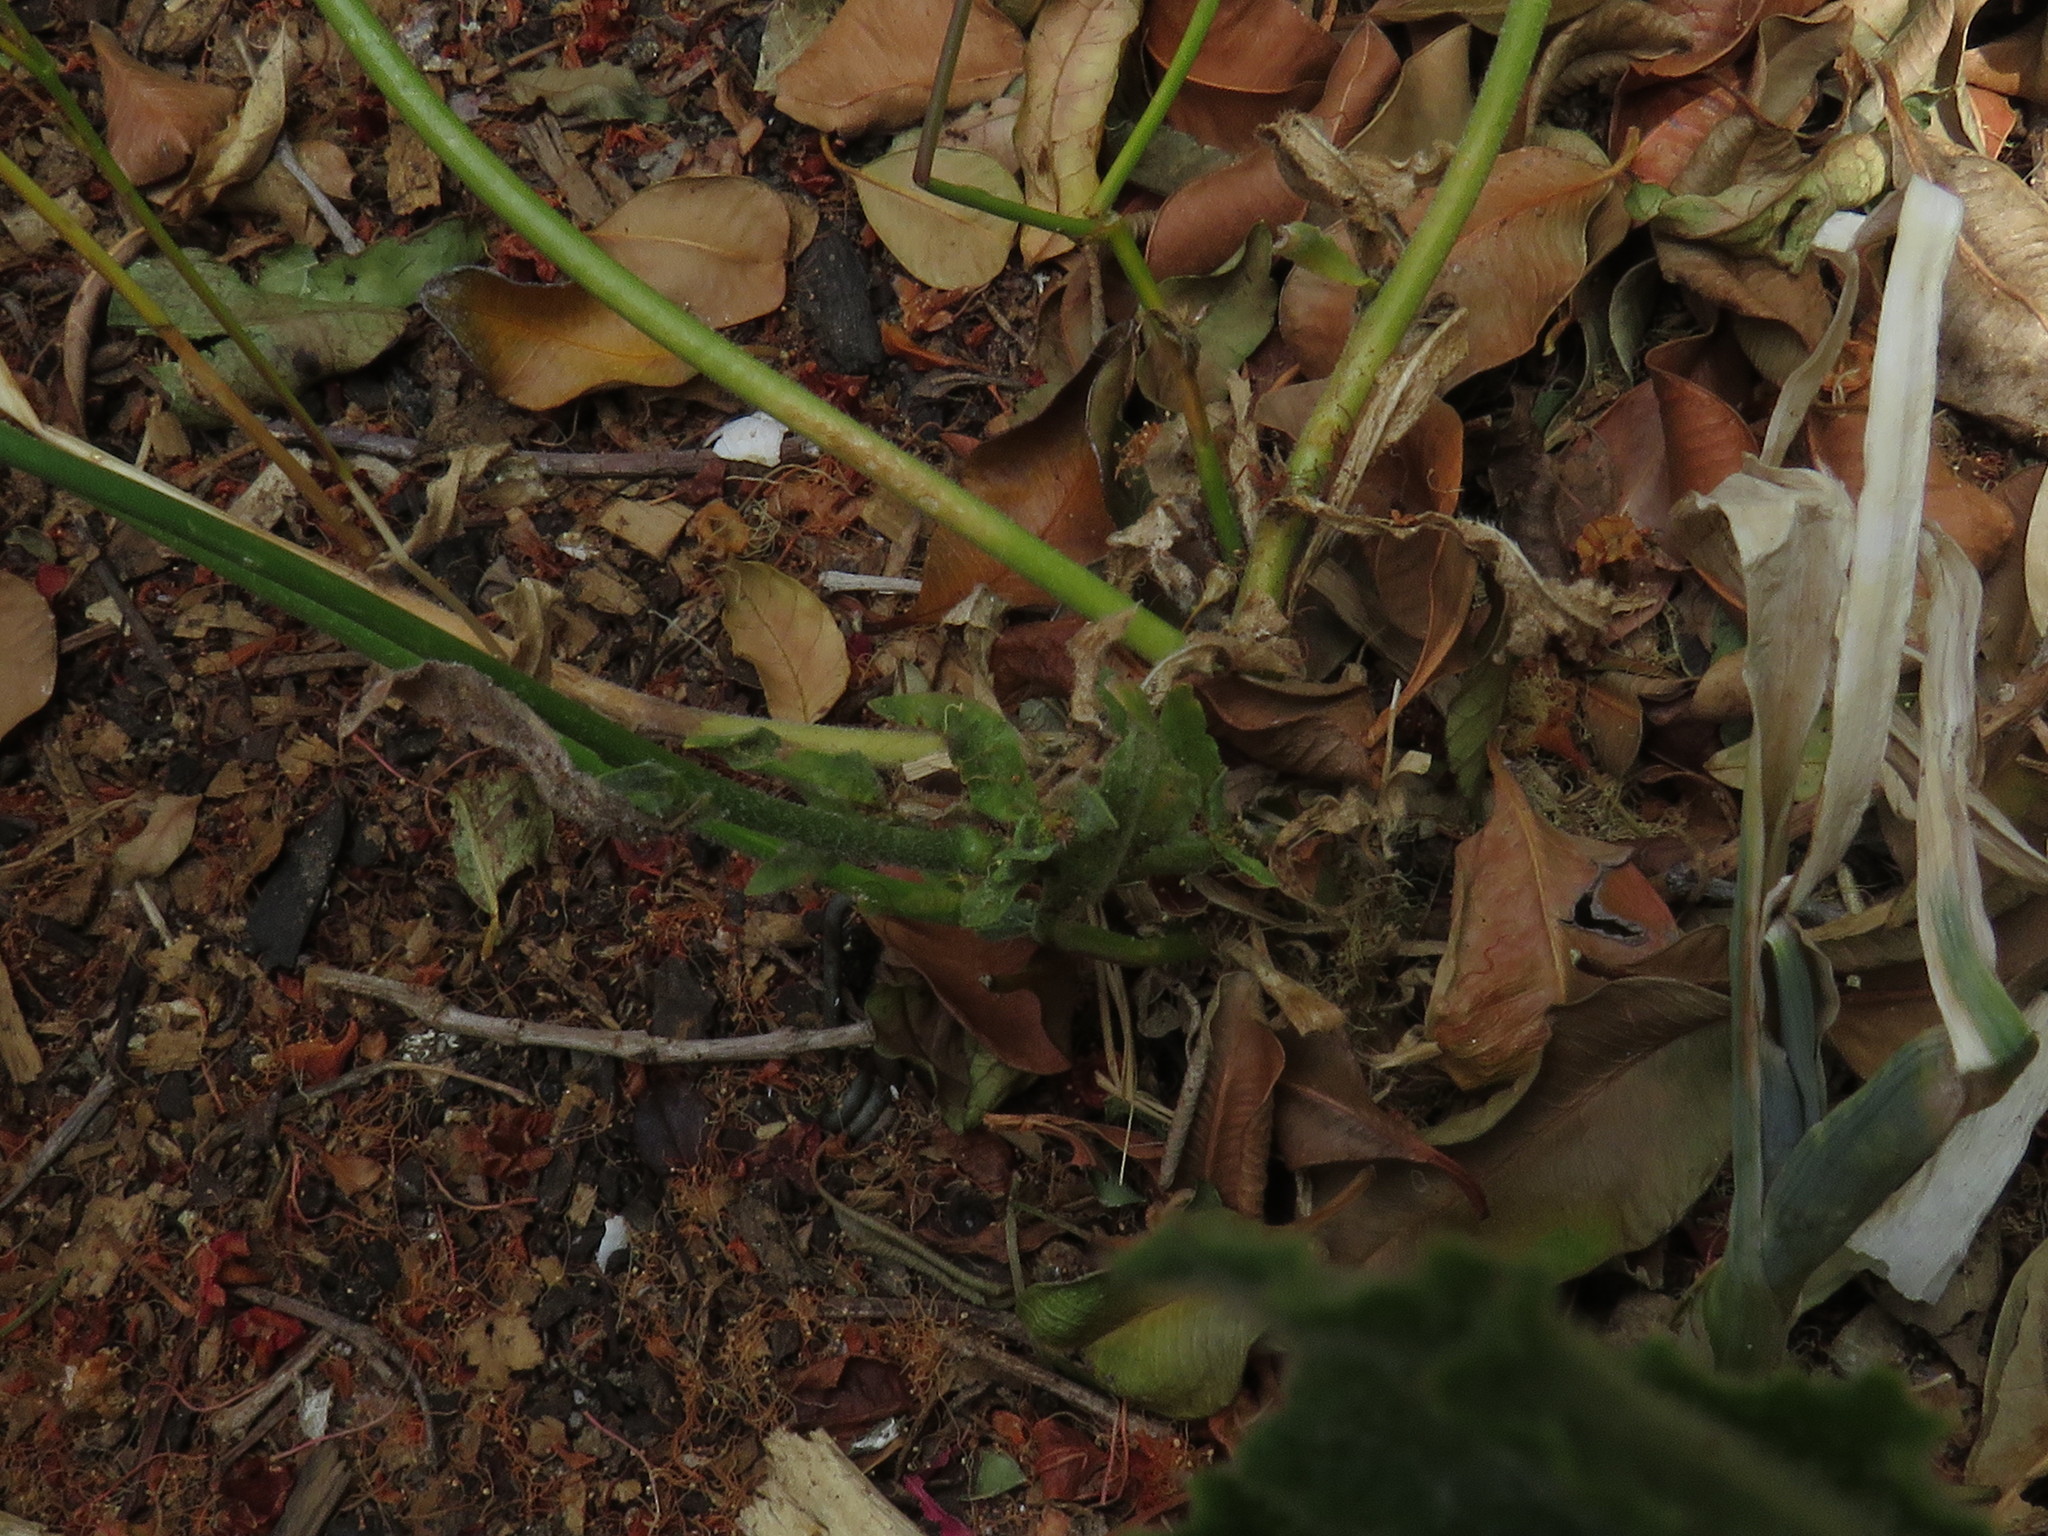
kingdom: Plantae
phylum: Tracheophyta
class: Magnoliopsida
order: Asterales
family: Campanulaceae
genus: Wahlenbergia
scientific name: Wahlenbergia androsacea
